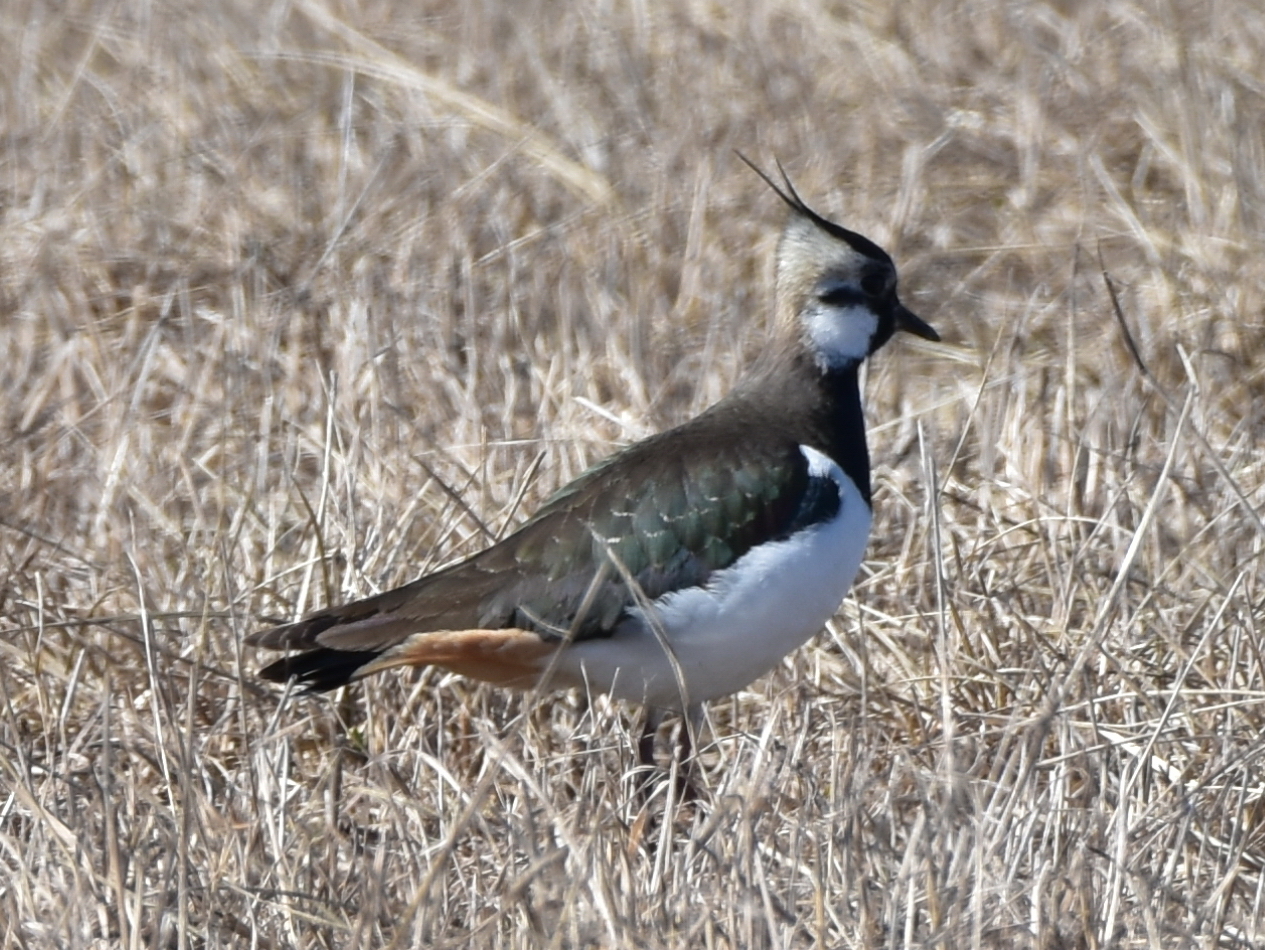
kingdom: Animalia
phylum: Chordata
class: Aves
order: Charadriiformes
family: Charadriidae
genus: Vanellus
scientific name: Vanellus vanellus
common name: Northern lapwing
